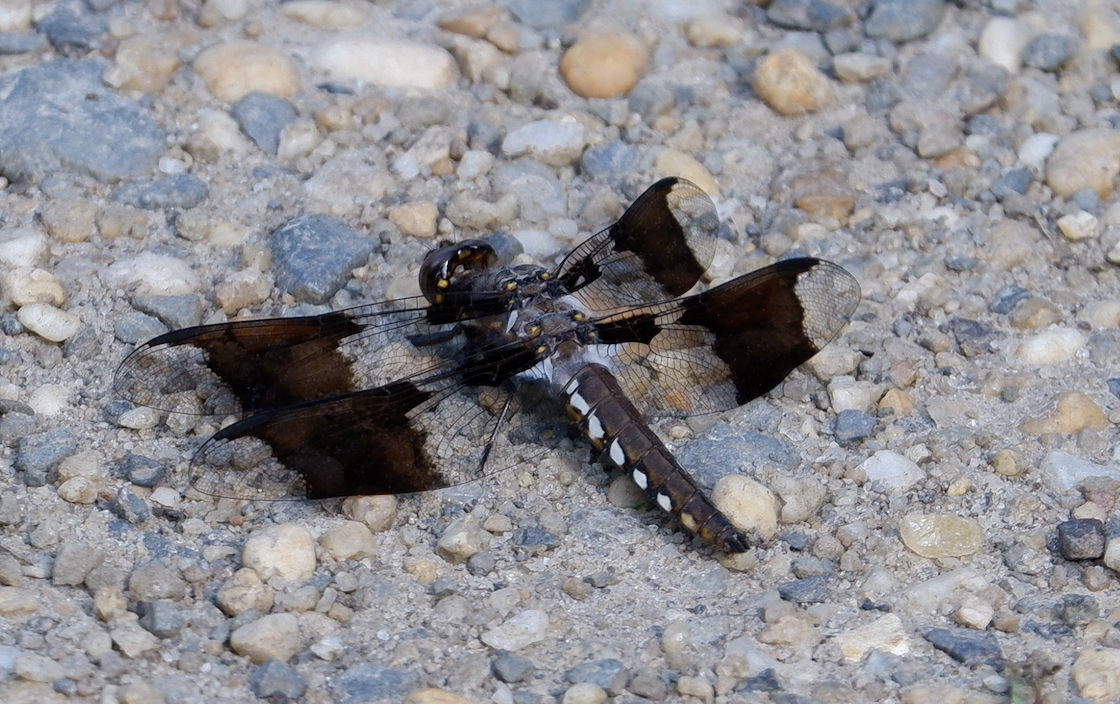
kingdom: Animalia
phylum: Arthropoda
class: Insecta
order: Odonata
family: Libellulidae
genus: Plathemis
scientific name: Plathemis lydia
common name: Common whitetail
